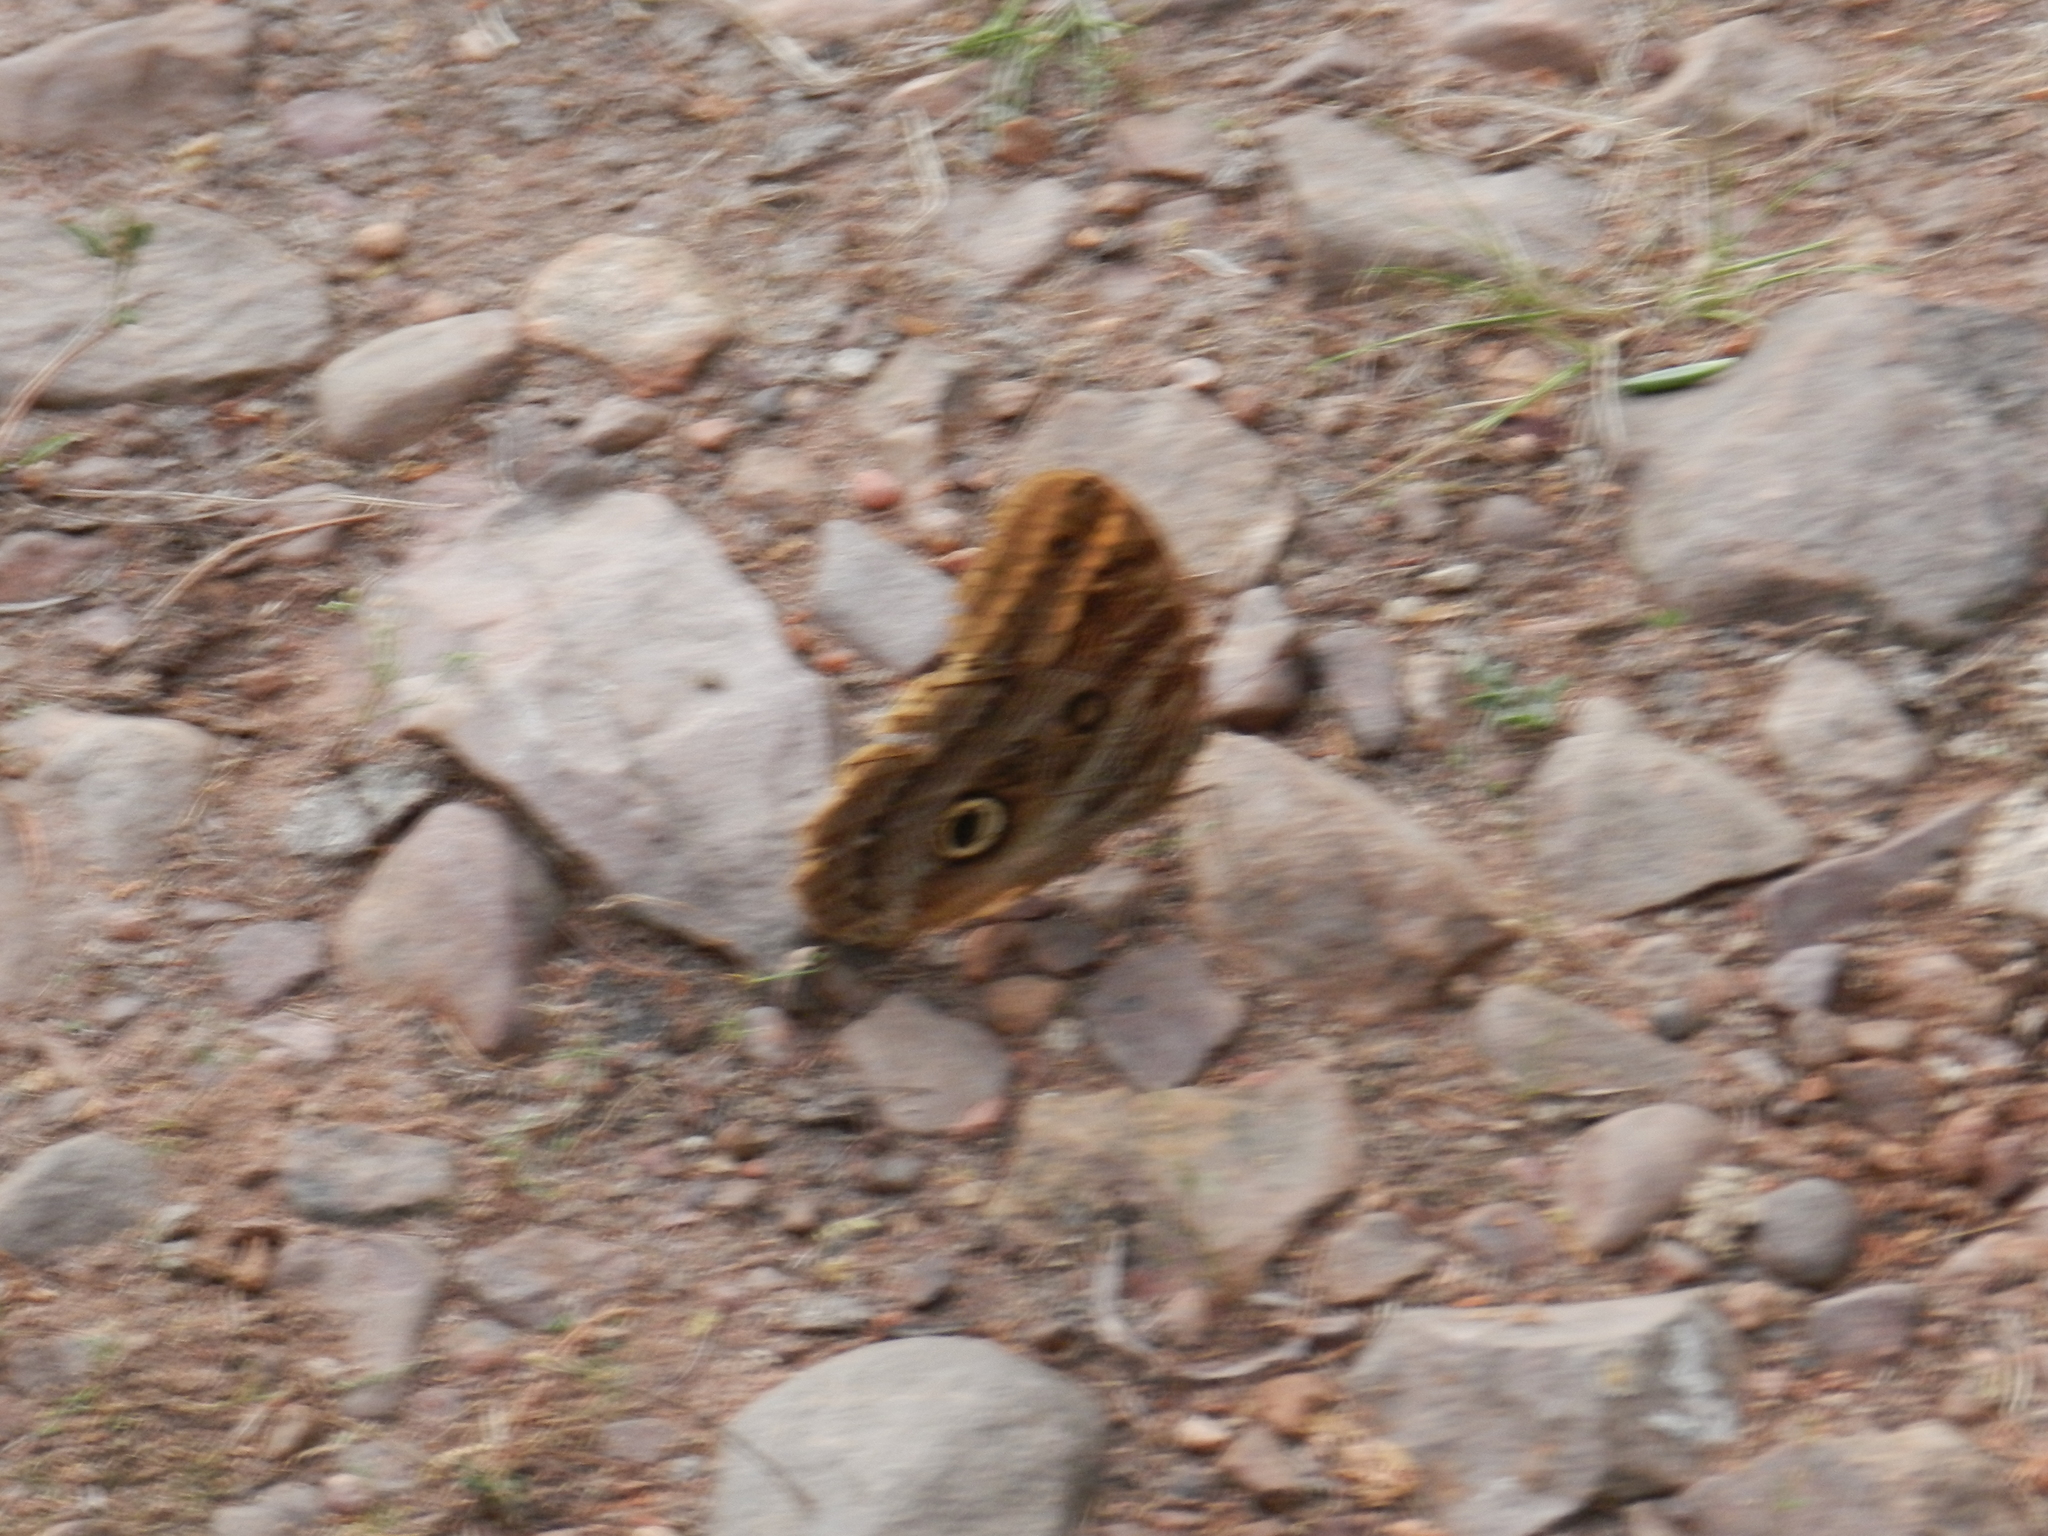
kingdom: Animalia
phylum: Arthropoda
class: Insecta
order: Lepidoptera
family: Nymphalidae
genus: Caligo
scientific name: Caligo illioneus
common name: Dusky owl-butterfly
